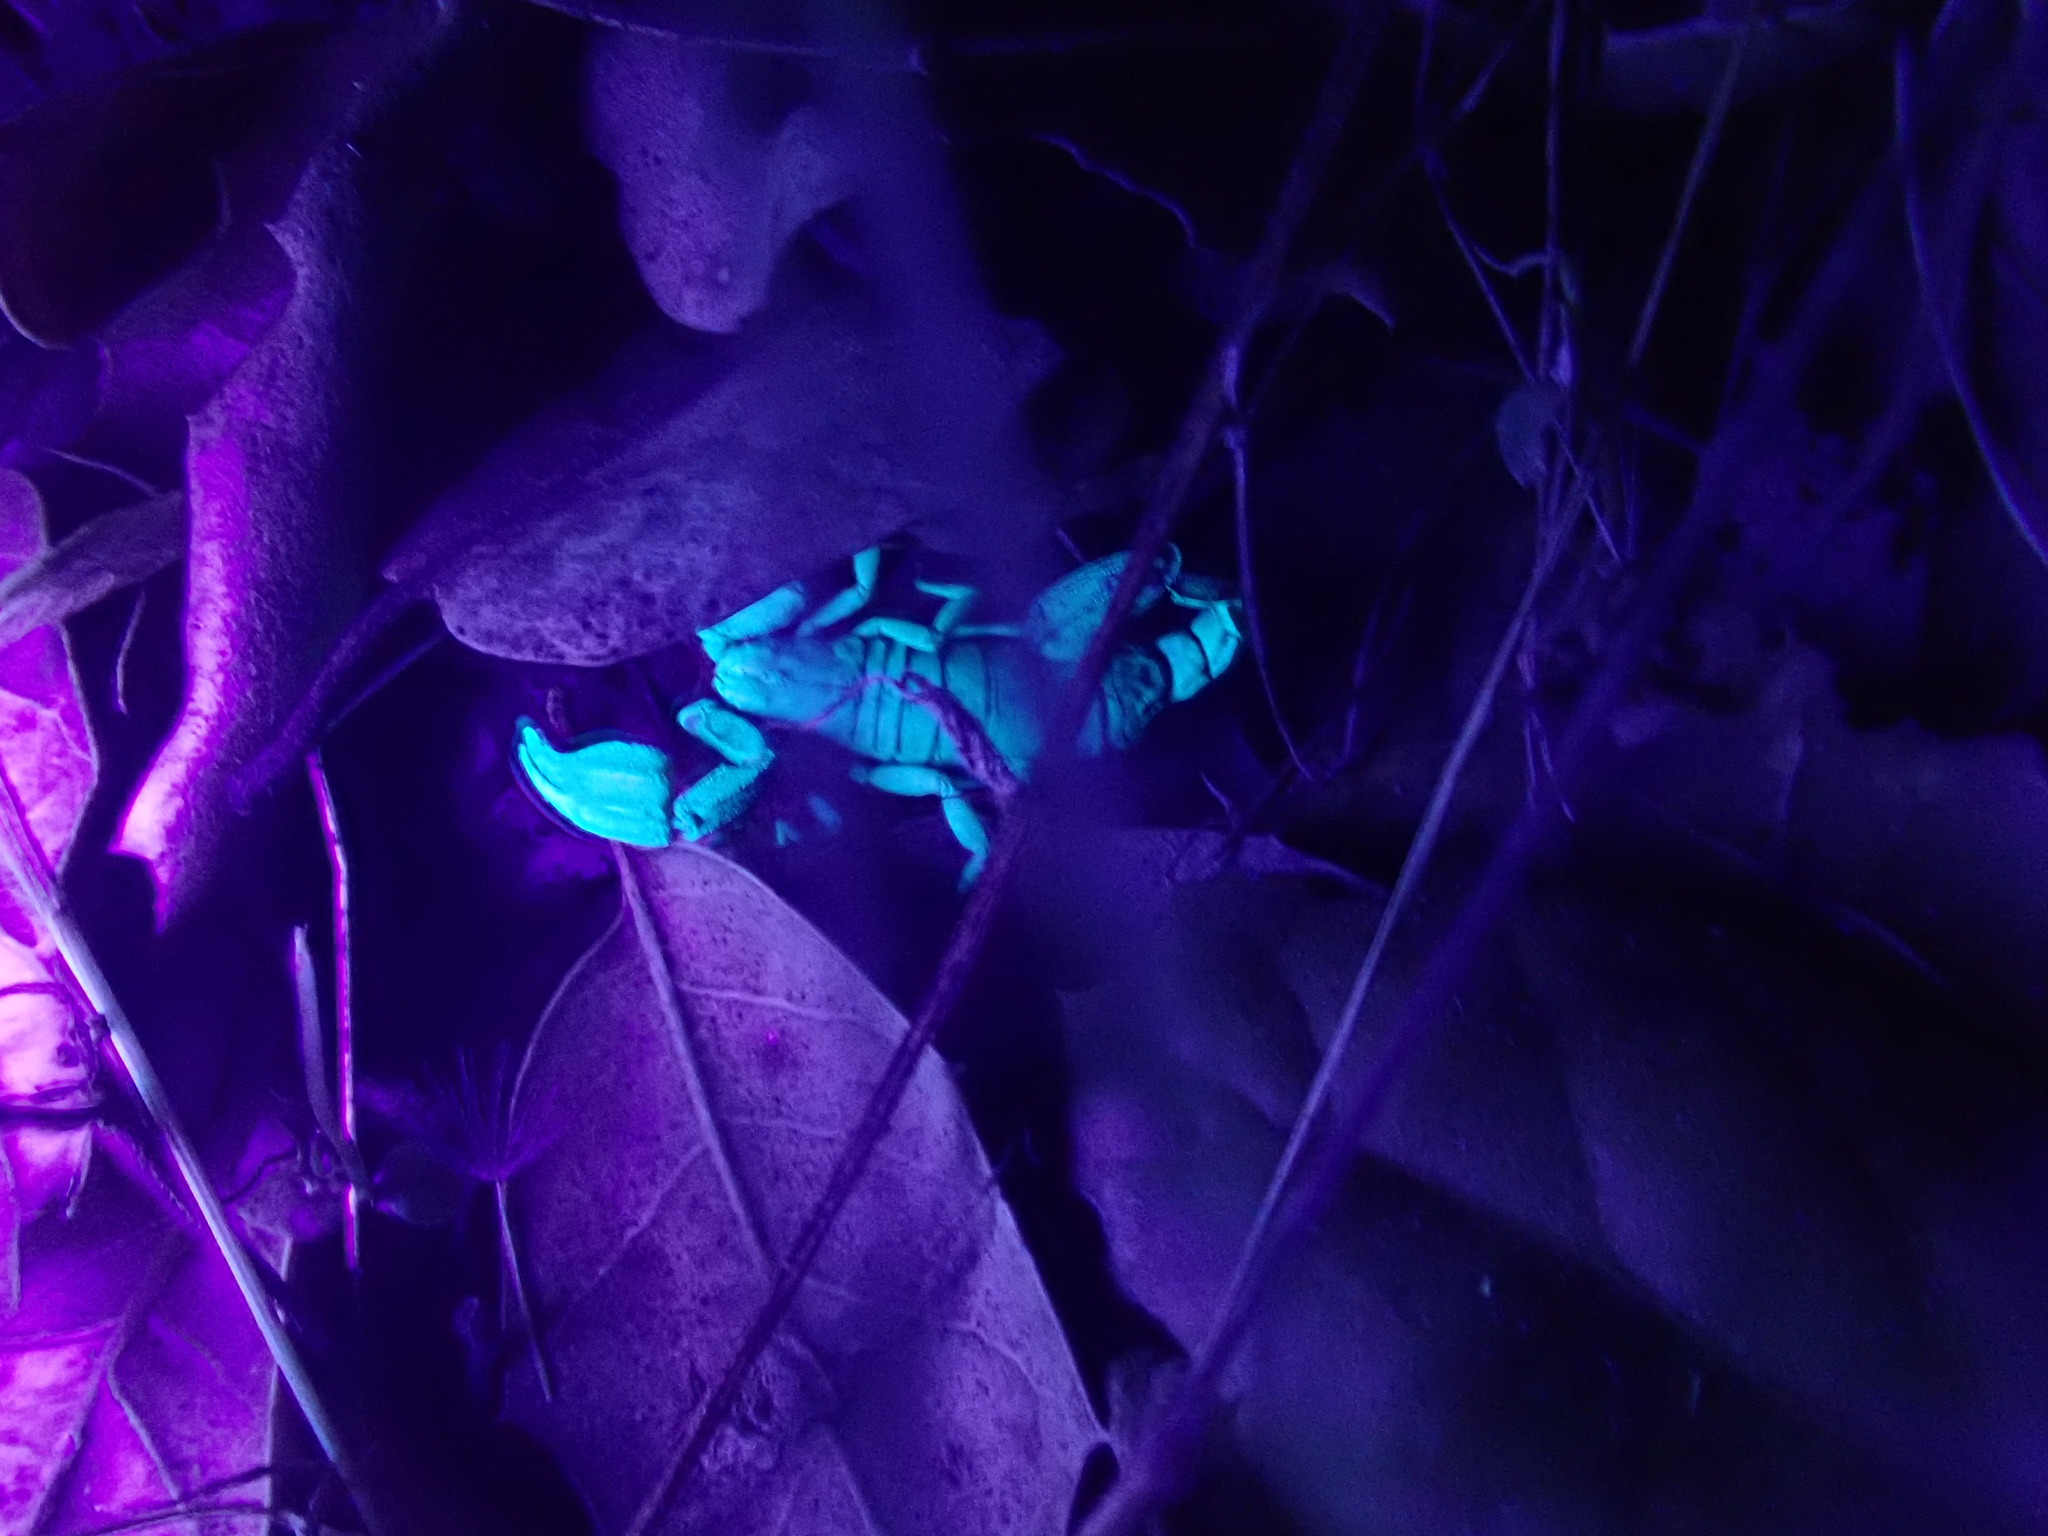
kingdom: Animalia
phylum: Arthropoda
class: Arachnida
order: Scorpiones
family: Chactidae
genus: Uroctonus
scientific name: Uroctonus mordax
